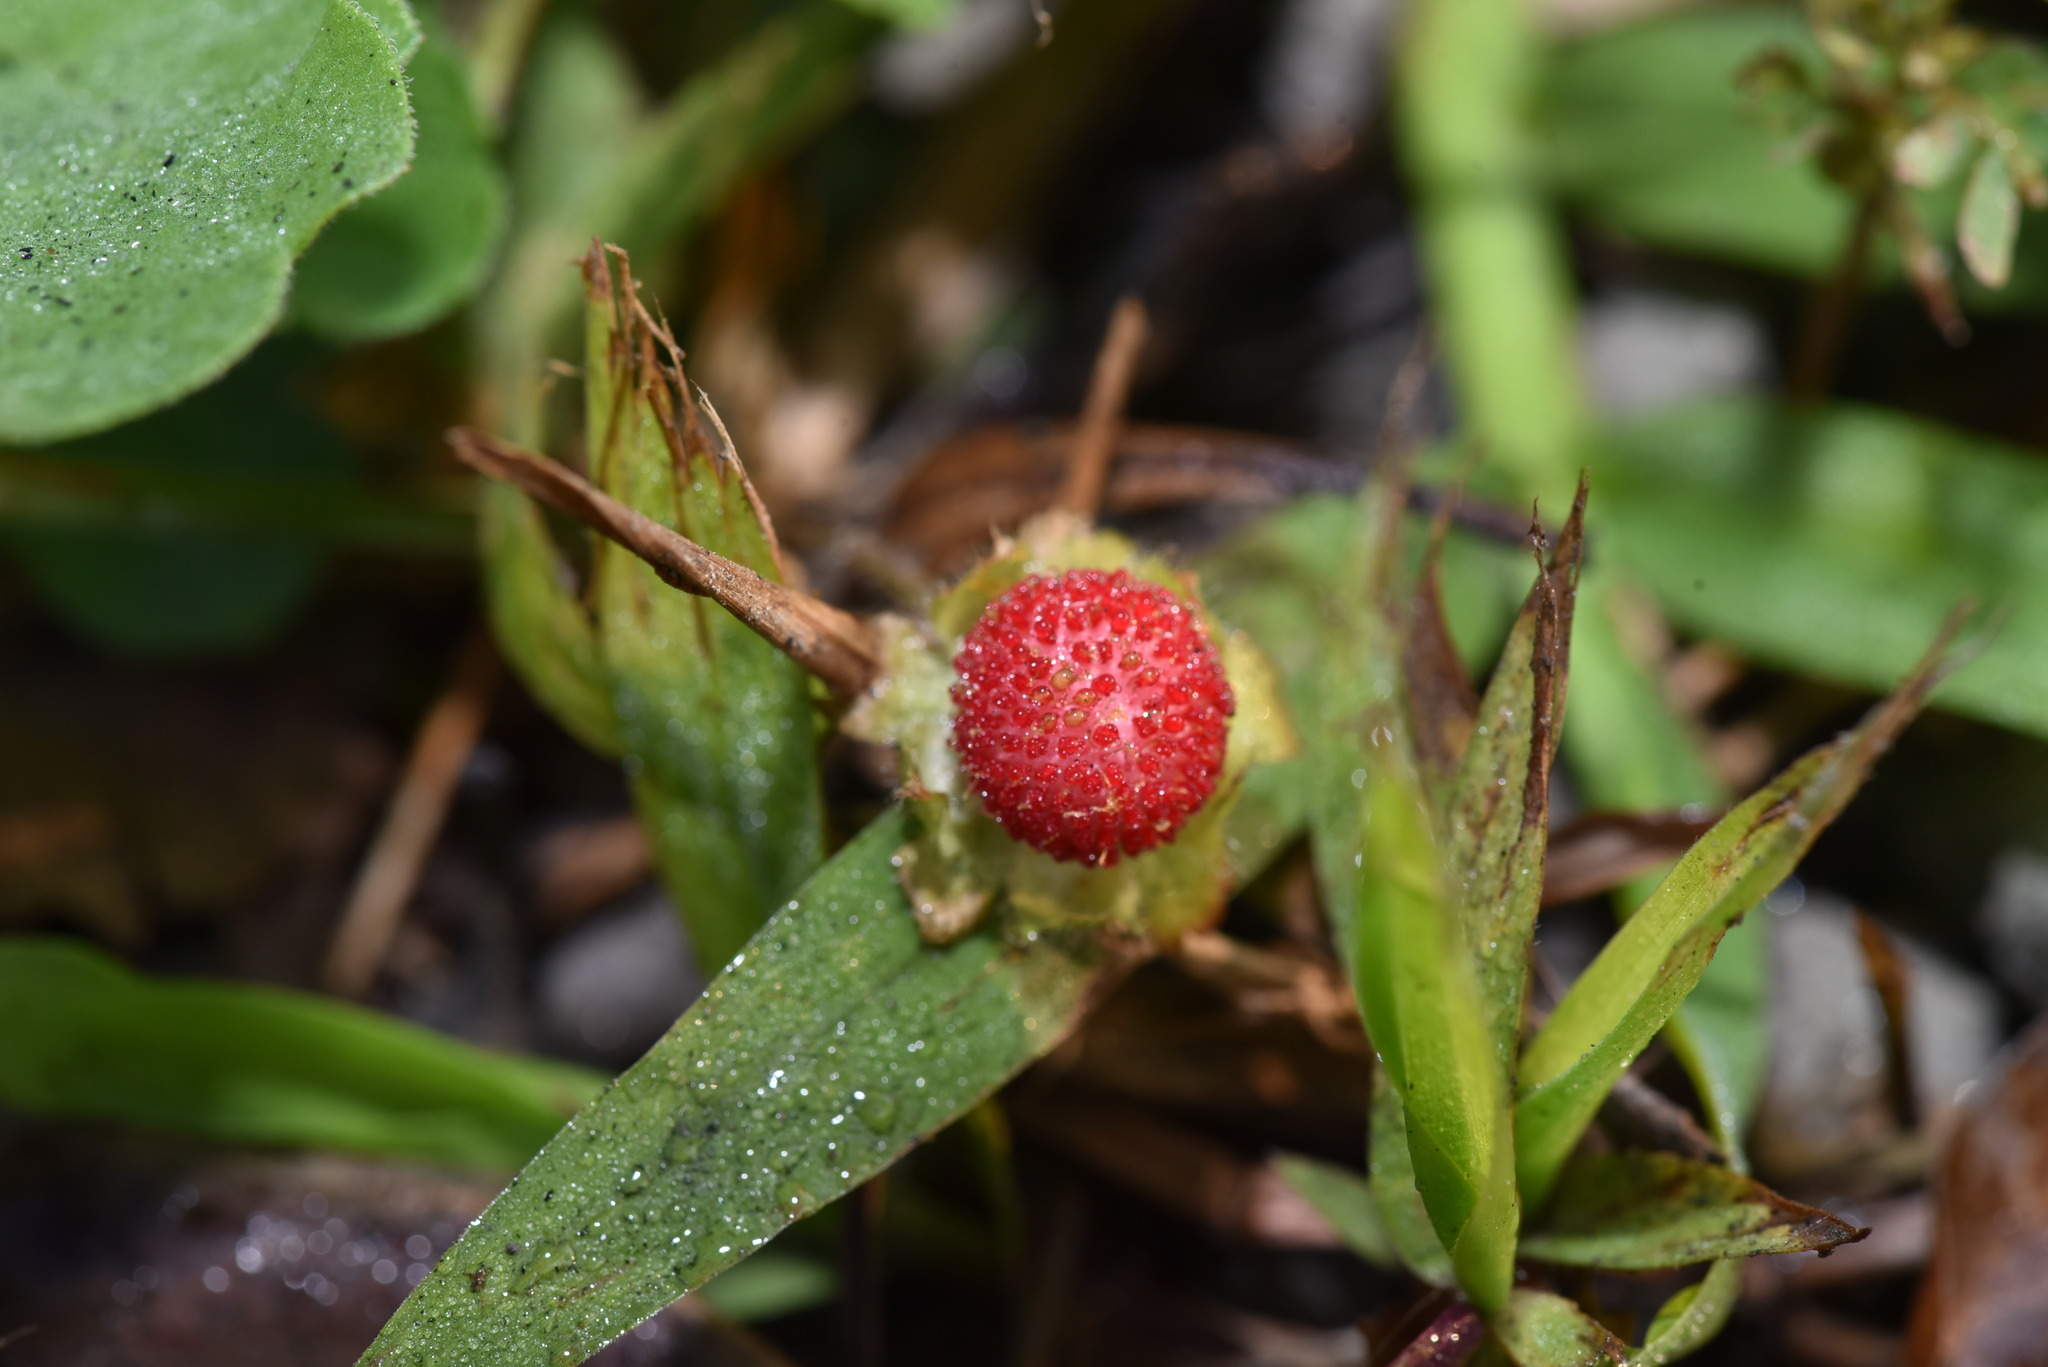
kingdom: Plantae
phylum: Tracheophyta
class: Magnoliopsida
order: Rosales
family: Rosaceae
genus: Potentilla
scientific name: Potentilla wallichiana
